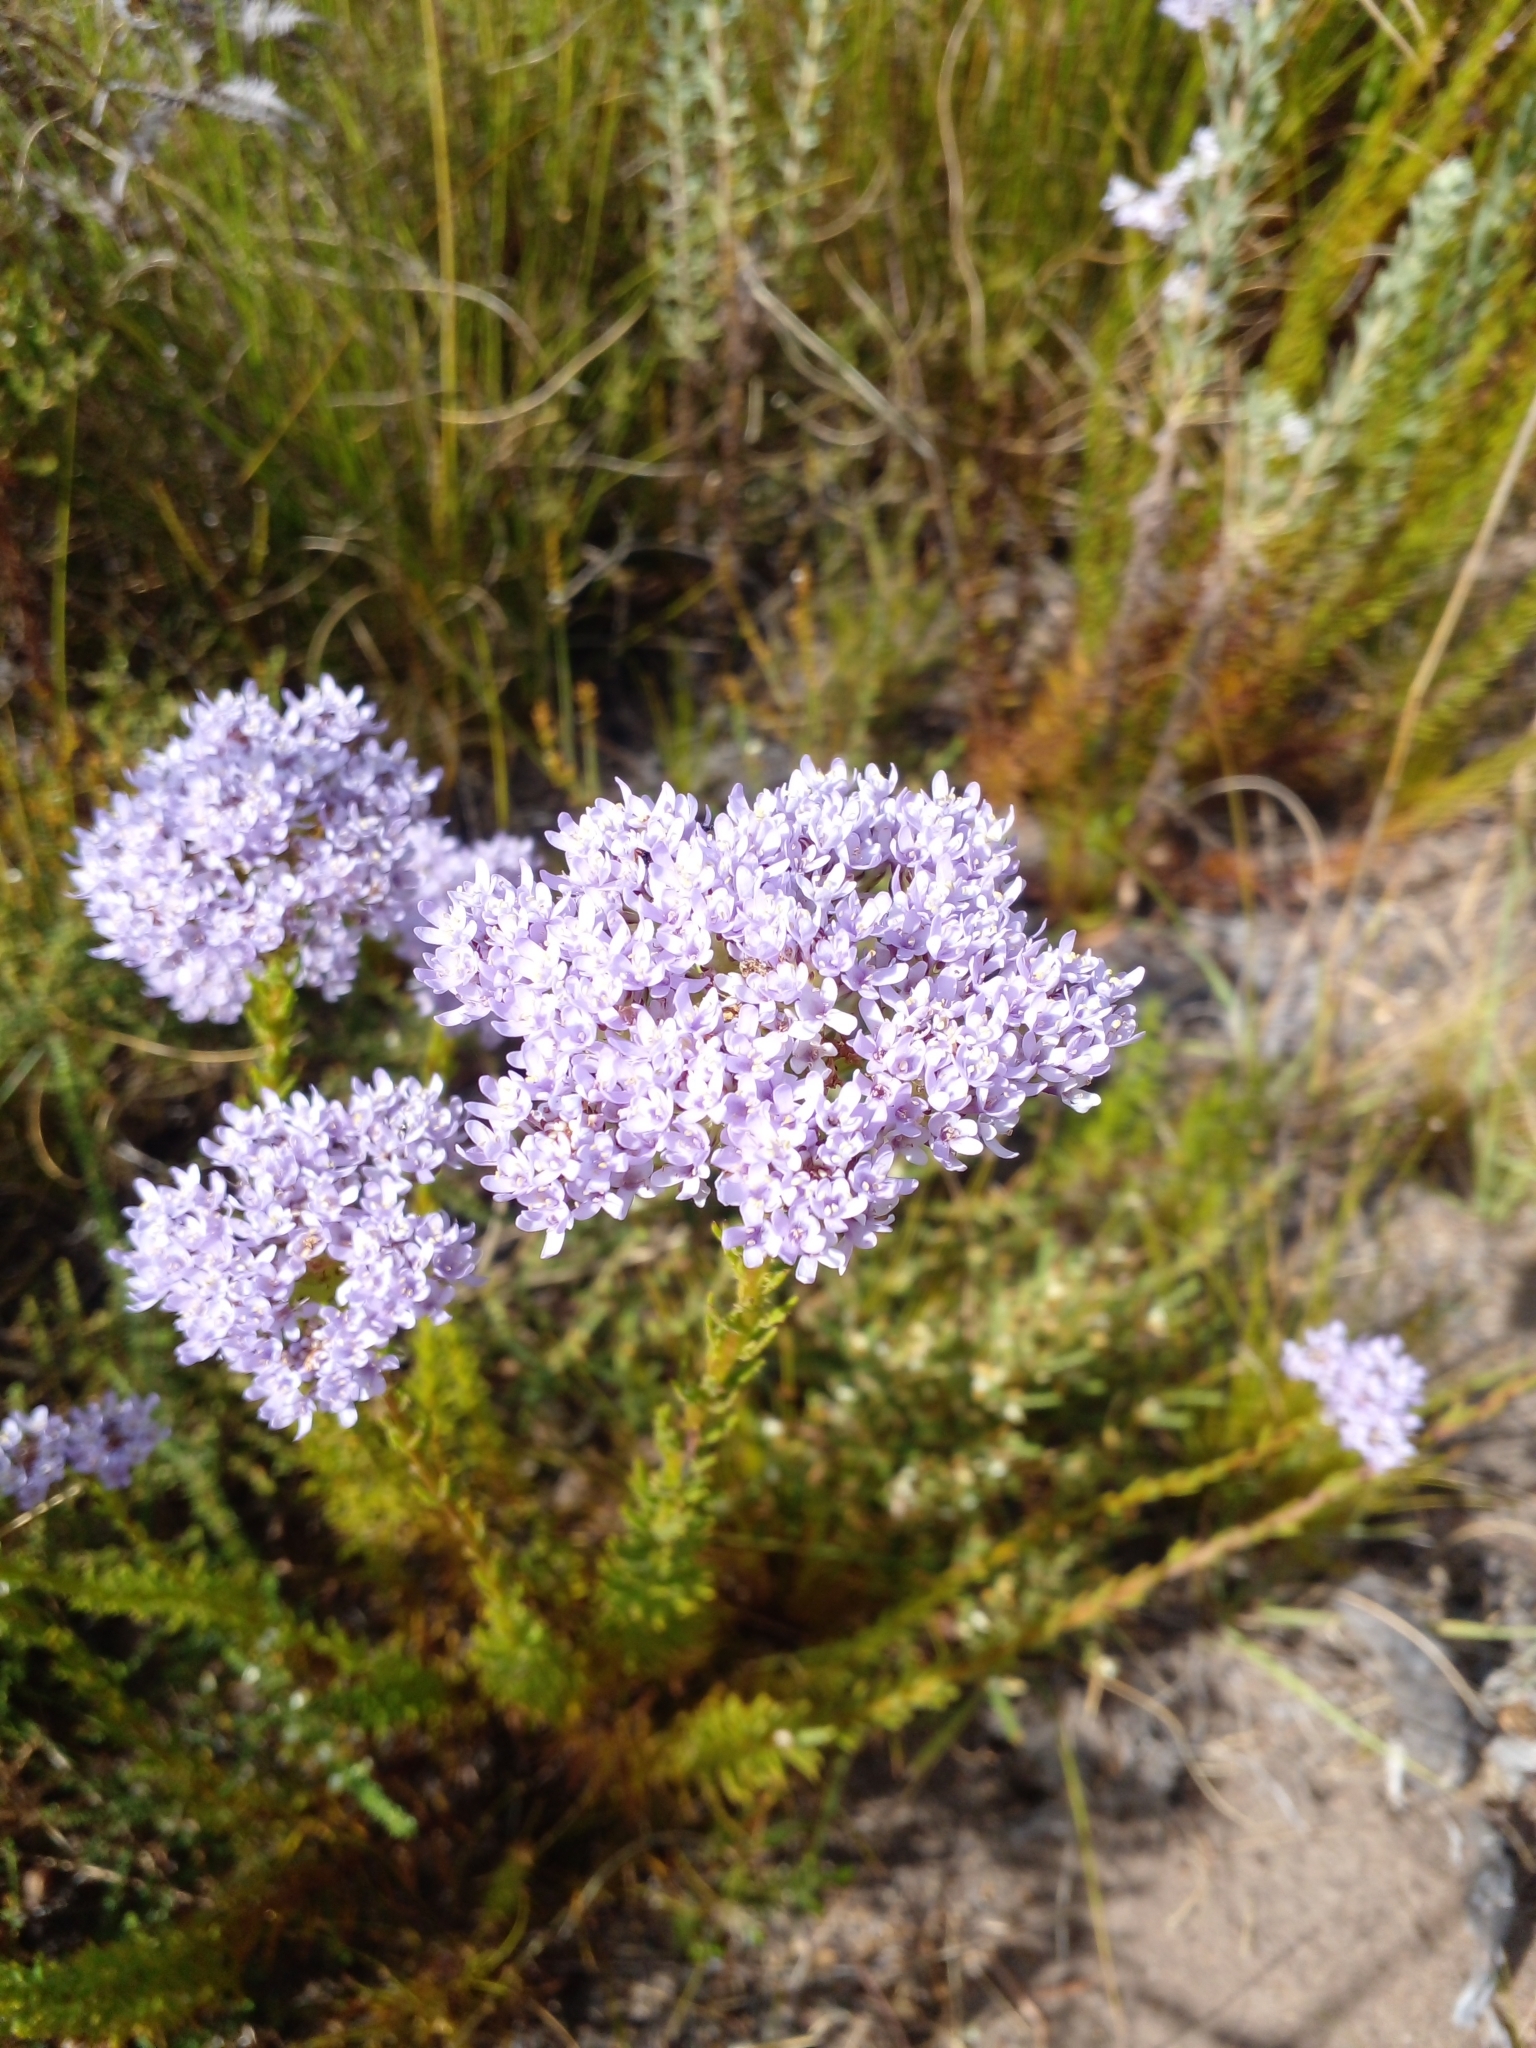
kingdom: Plantae
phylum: Tracheophyta
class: Magnoliopsida
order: Lamiales
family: Scrophulariaceae
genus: Pseudoselago
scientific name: Pseudoselago serrata
